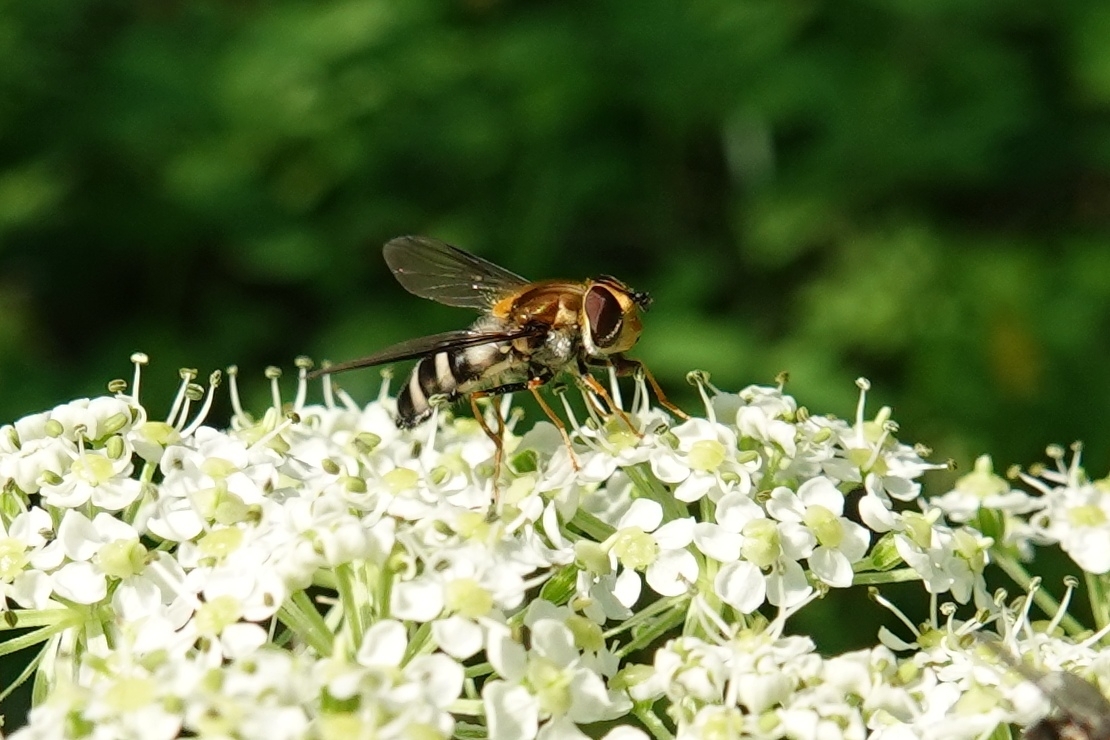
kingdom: Animalia
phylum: Arthropoda
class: Insecta
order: Diptera
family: Syrphidae
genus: Leucozona
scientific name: Leucozona glaucia
